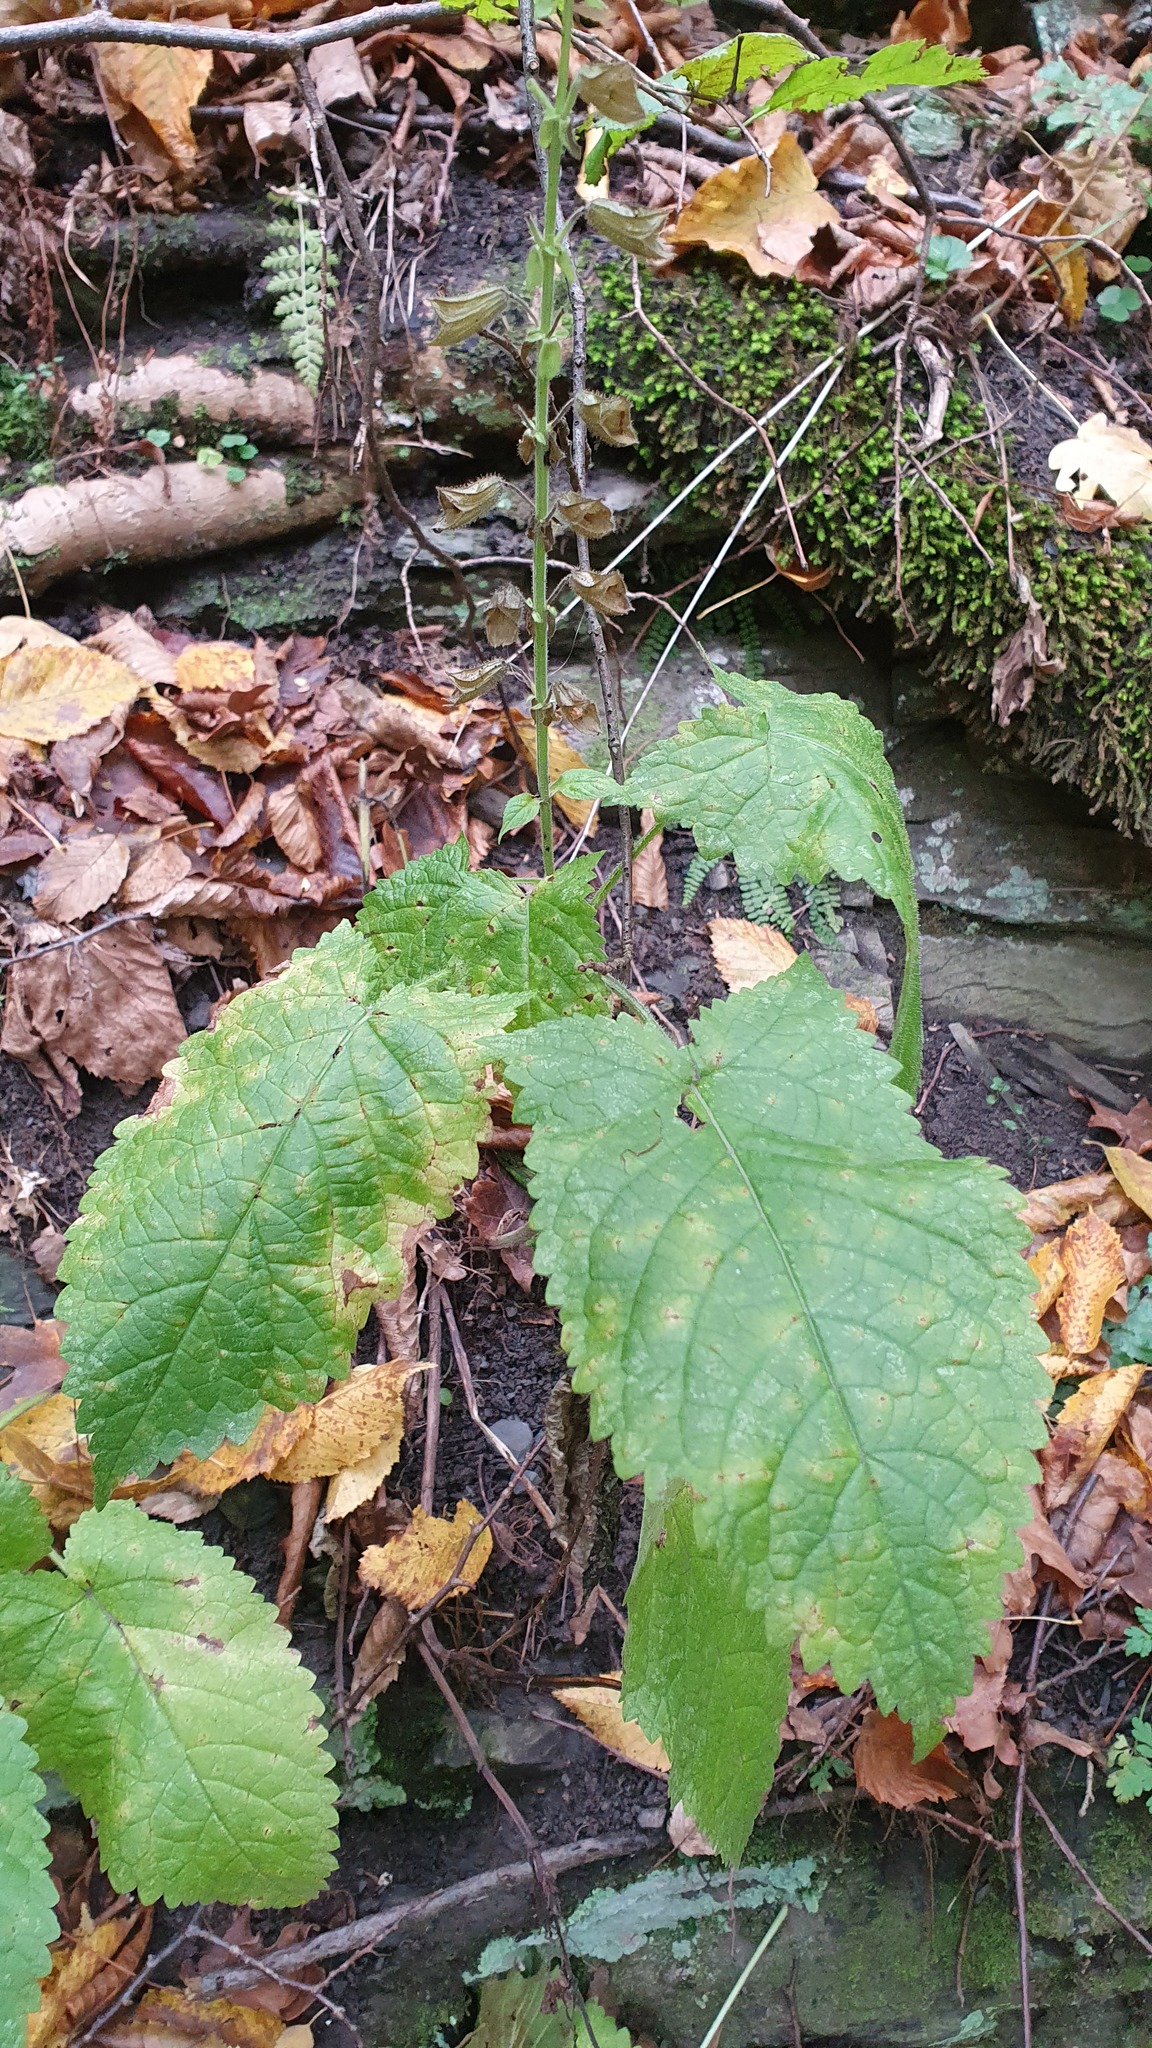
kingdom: Plantae
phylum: Tracheophyta
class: Magnoliopsida
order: Lamiales
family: Lamiaceae
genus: Salvia
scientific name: Salvia glutinosa
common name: Sticky clary
